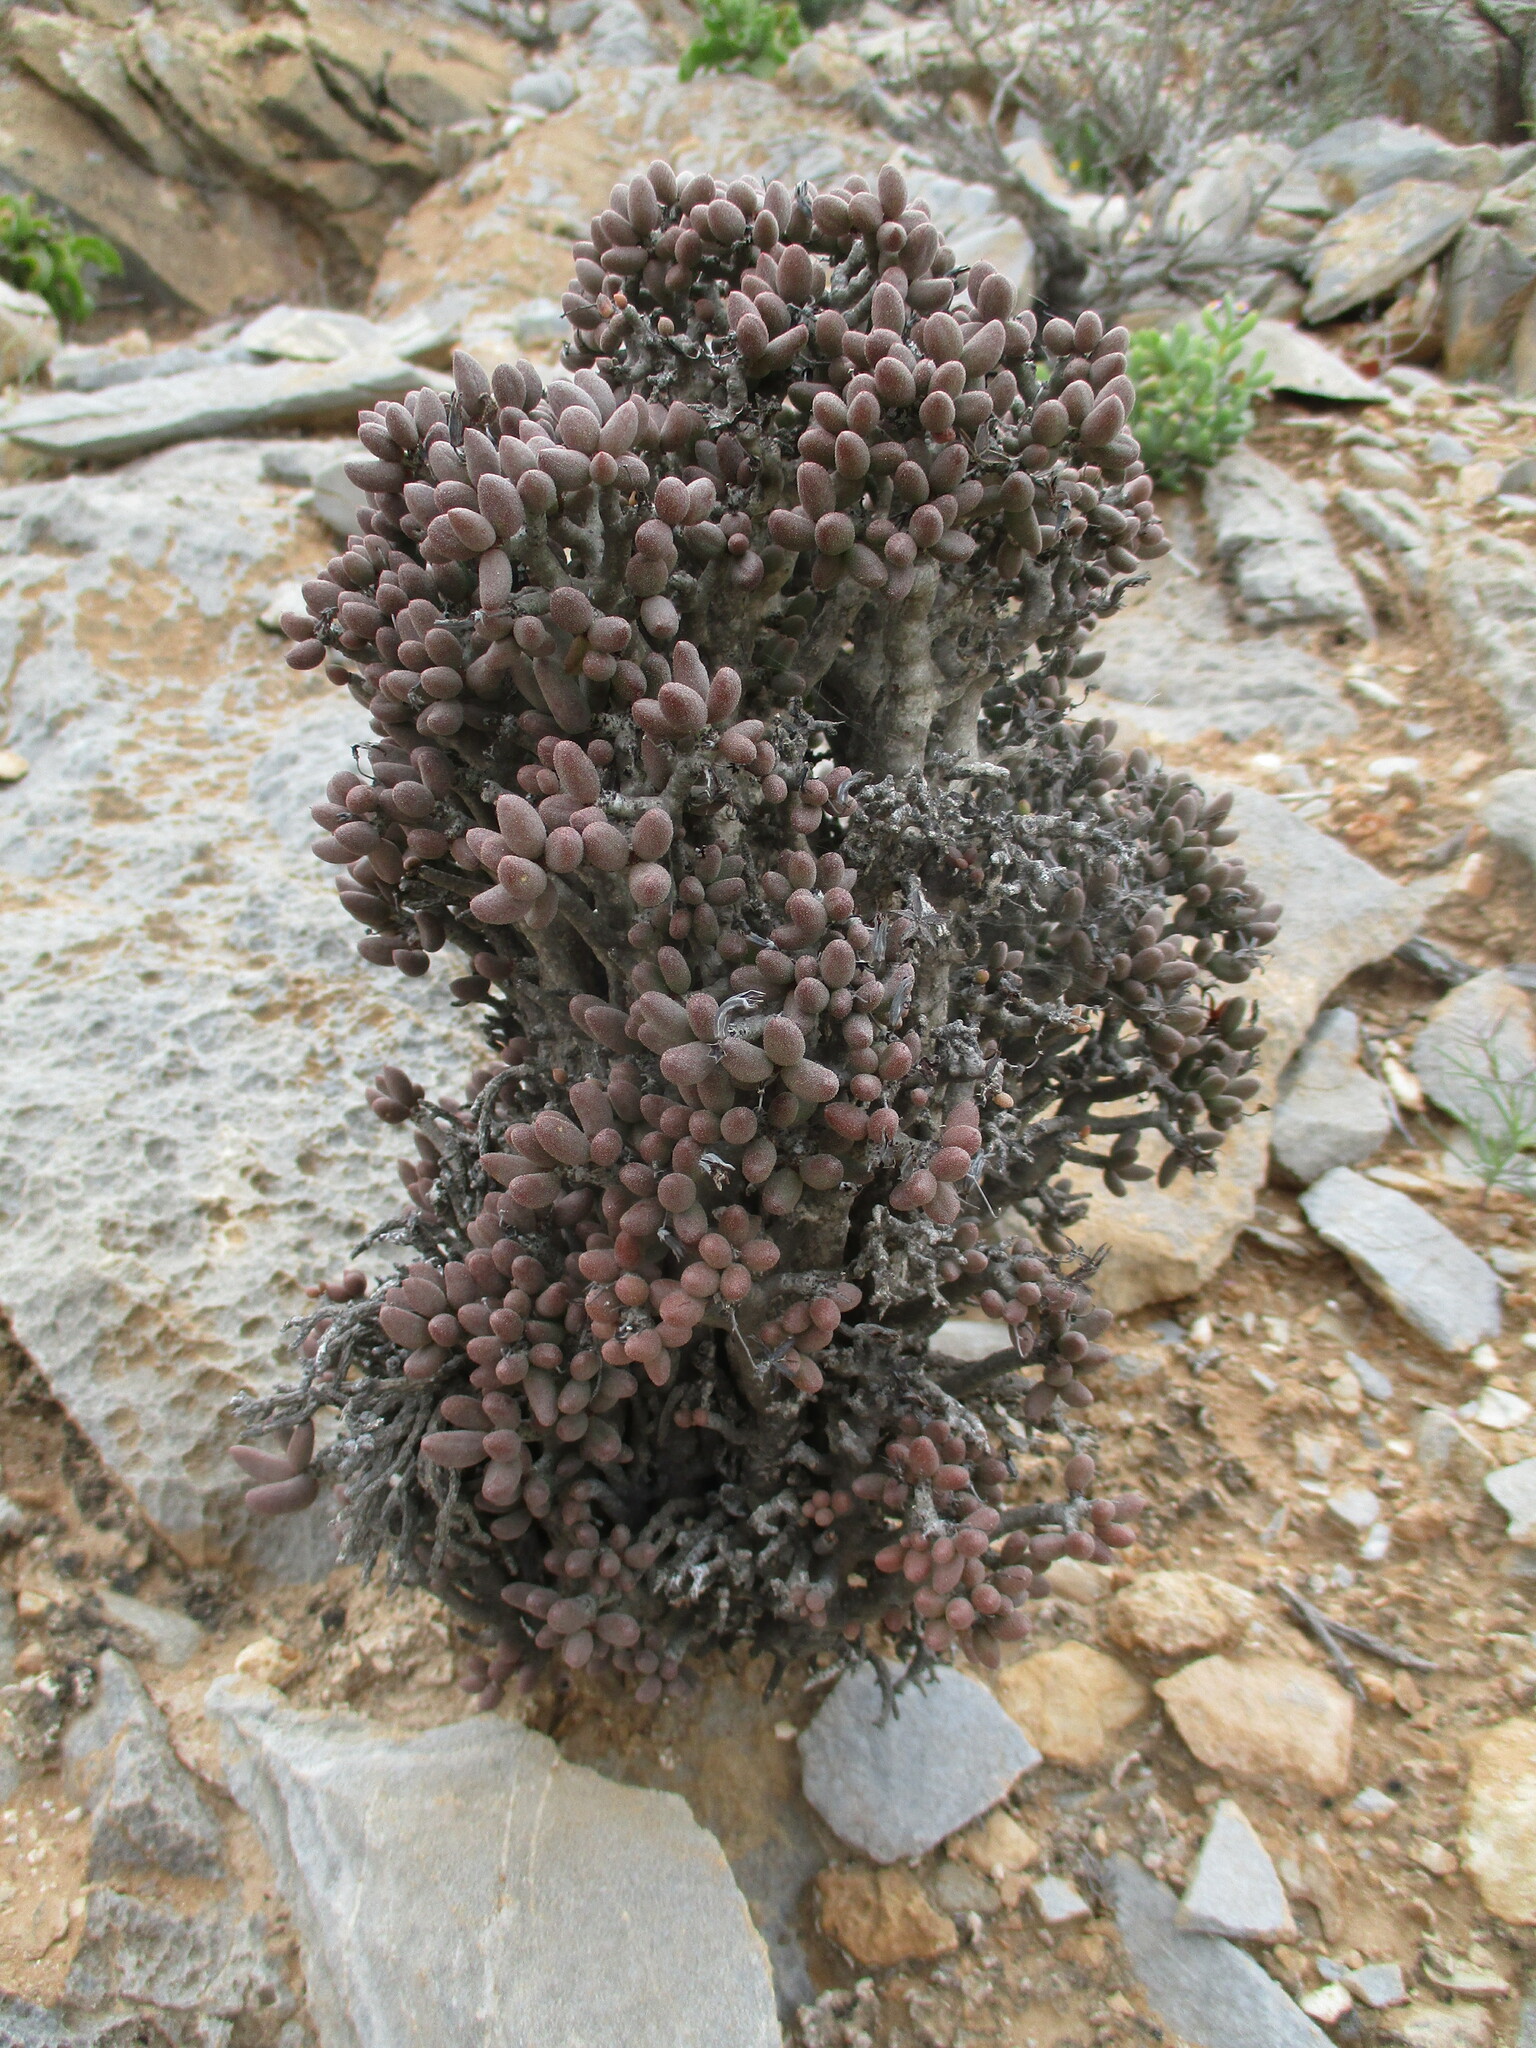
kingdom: Plantae
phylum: Tracheophyta
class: Magnoliopsida
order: Saxifragales
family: Crassulaceae
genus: Tylecodon
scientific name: Tylecodon buchholzianus
